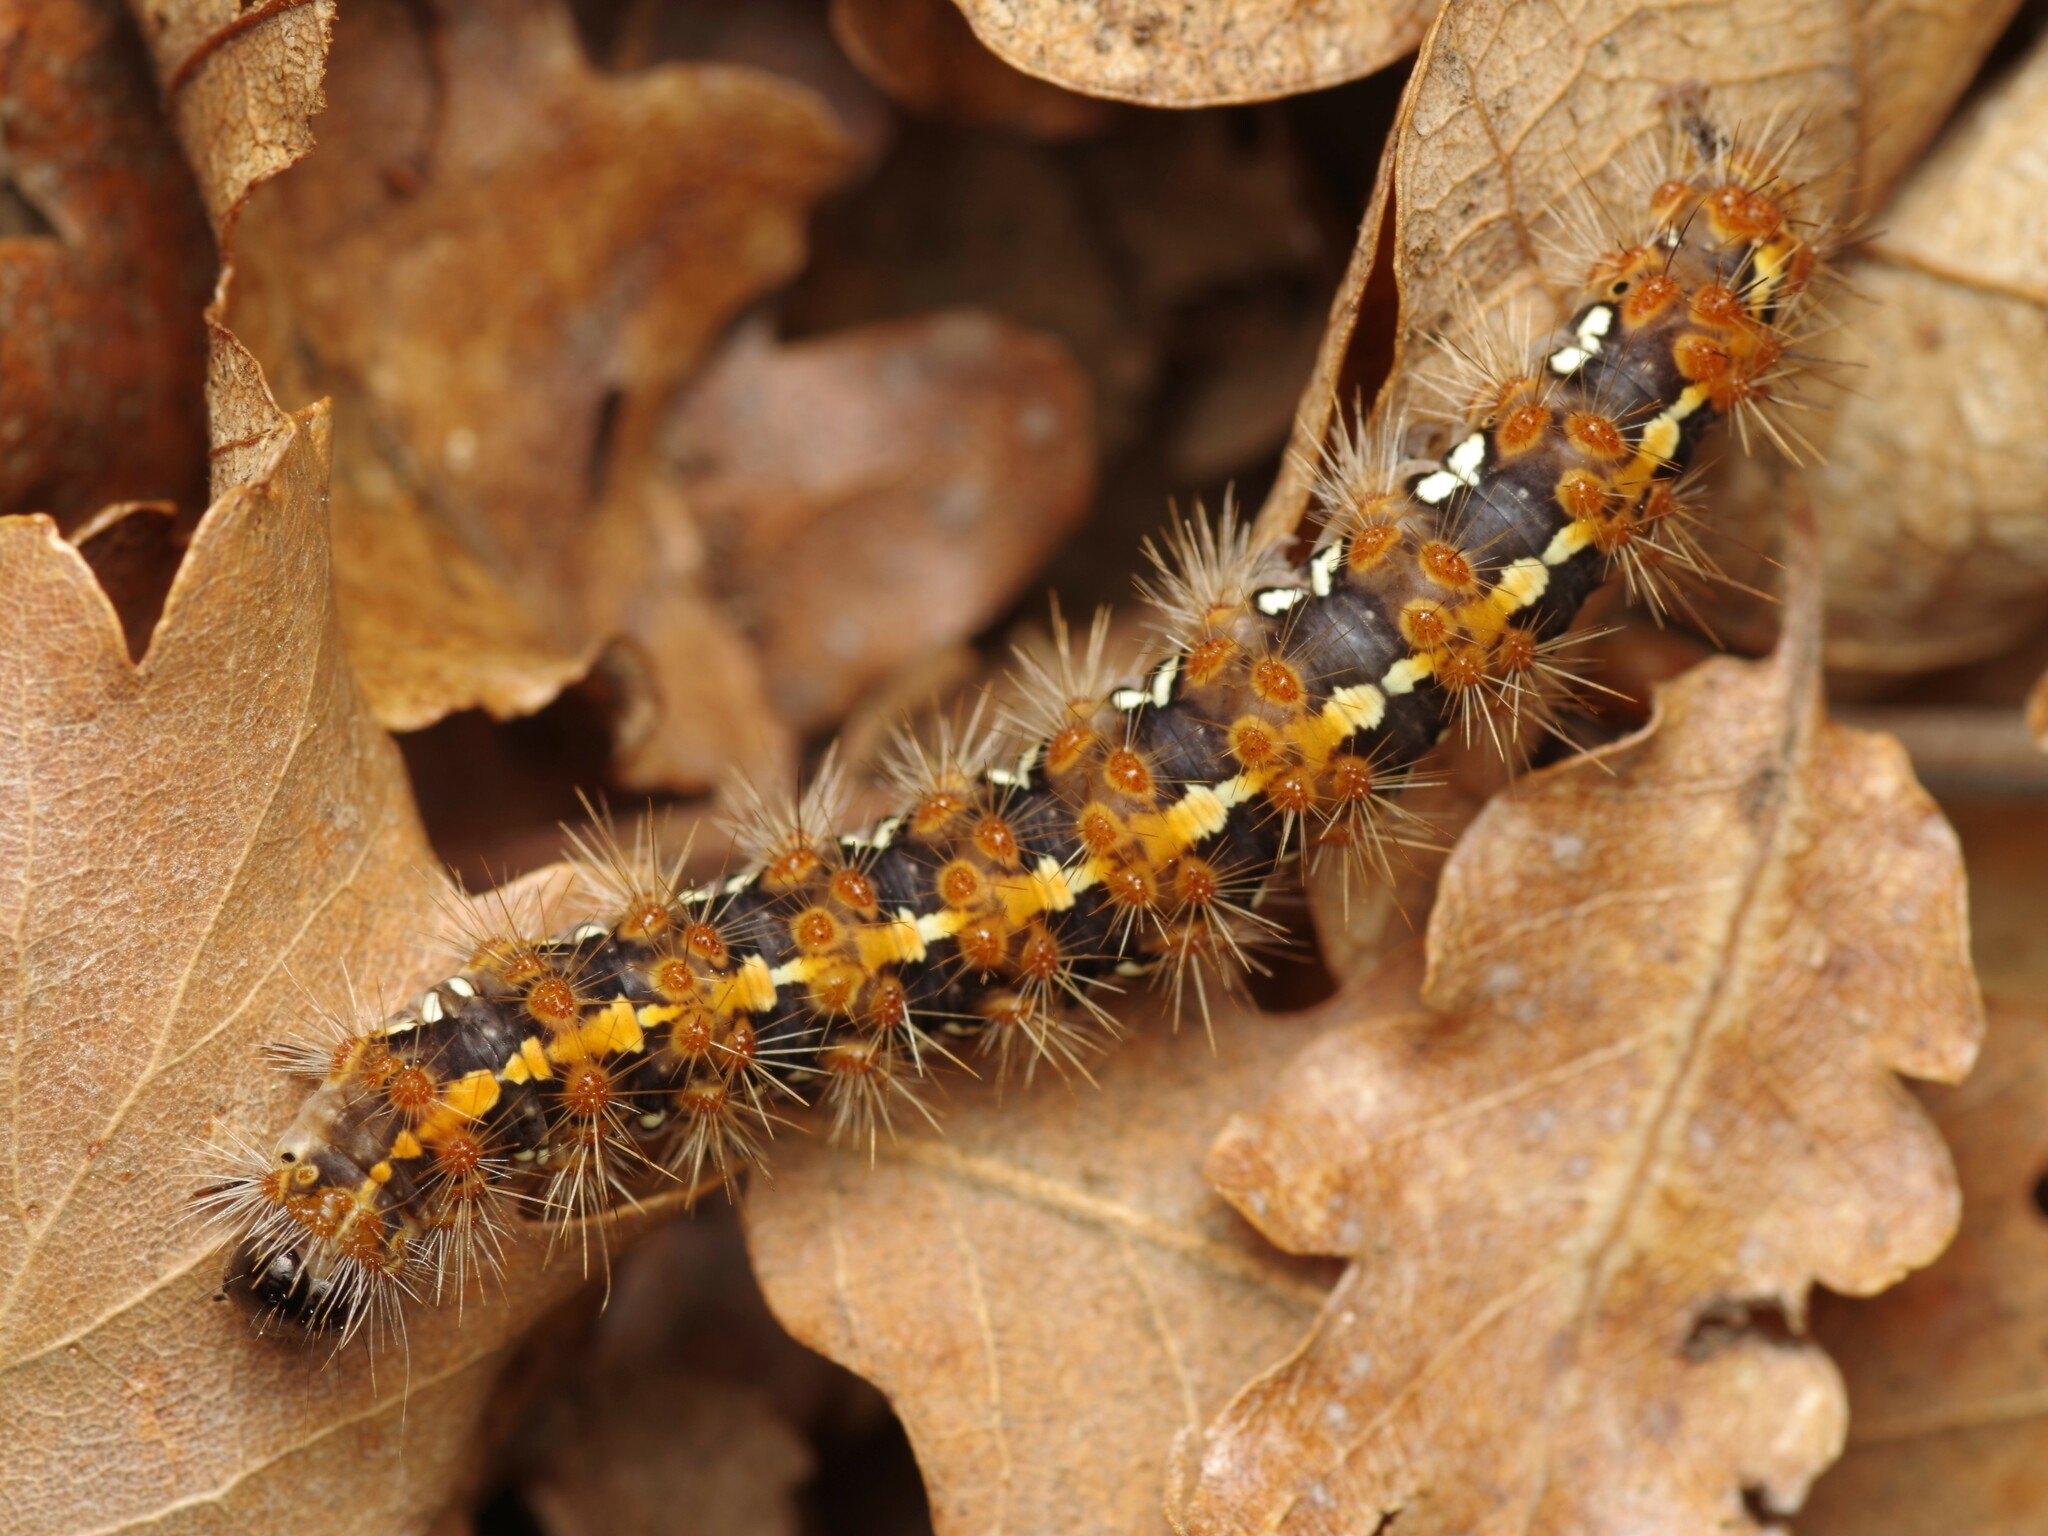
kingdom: Animalia
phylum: Arthropoda
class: Insecta
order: Lepidoptera
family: Erebidae
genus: Euplagia
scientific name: Euplagia quadripunctaria
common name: Jersey tiger
